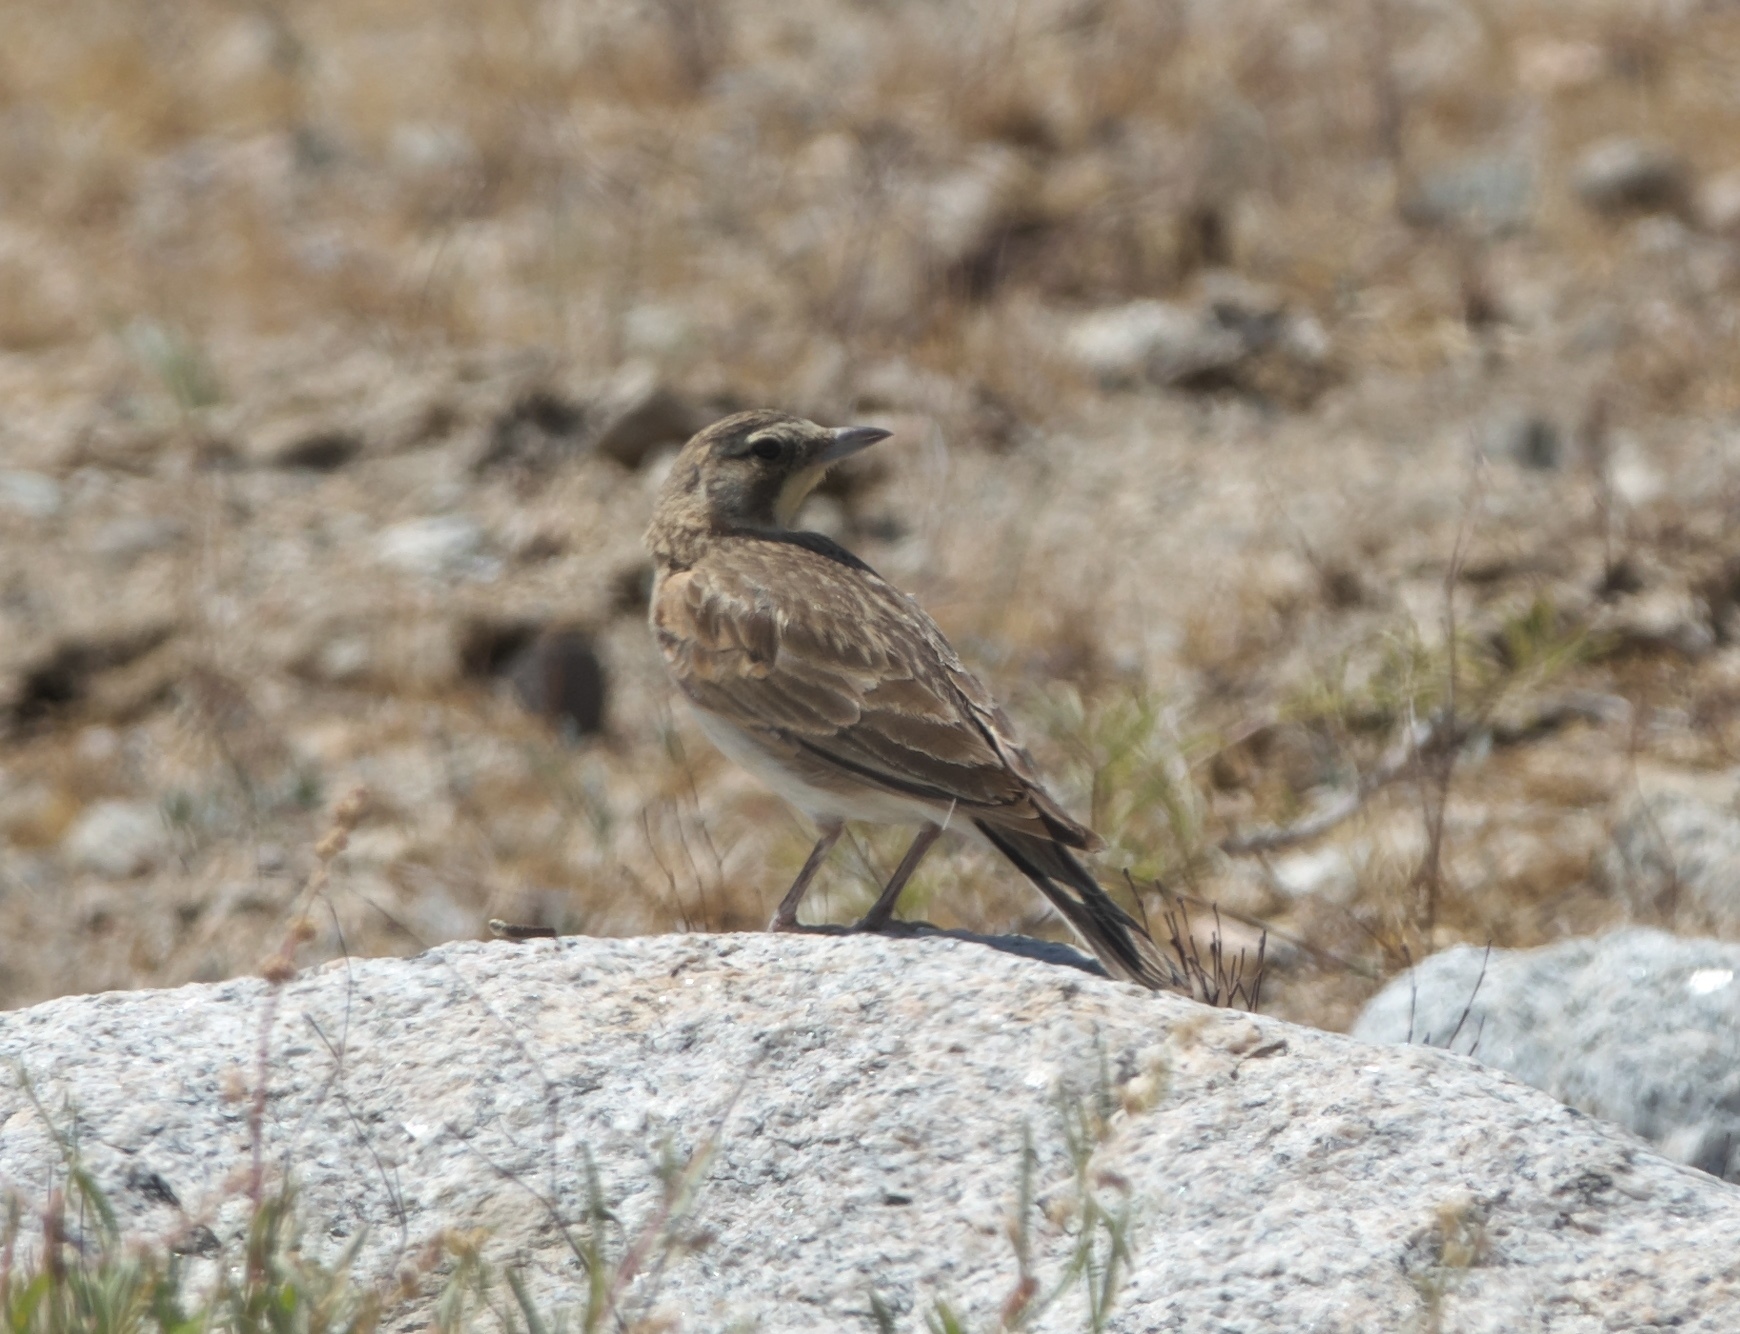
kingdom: Animalia
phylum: Chordata
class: Aves
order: Passeriformes
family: Alaudidae
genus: Eremophila
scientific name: Eremophila alpestris
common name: Horned lark
